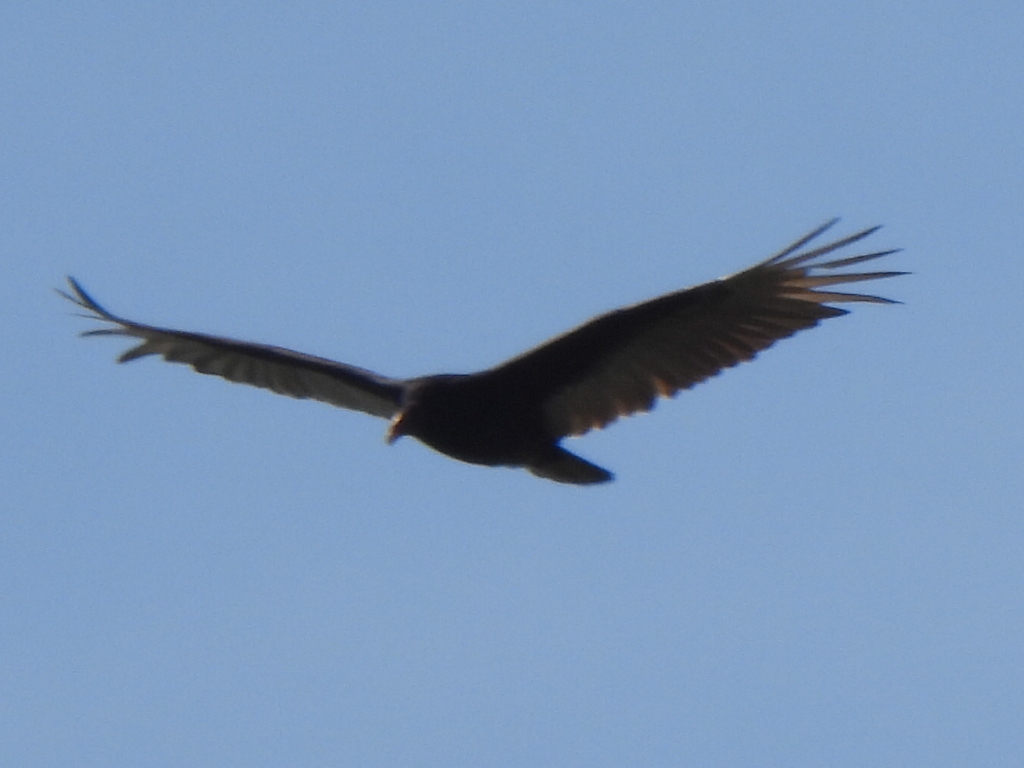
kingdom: Animalia
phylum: Chordata
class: Aves
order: Accipitriformes
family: Cathartidae
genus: Cathartes
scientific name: Cathartes aura
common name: Turkey vulture
